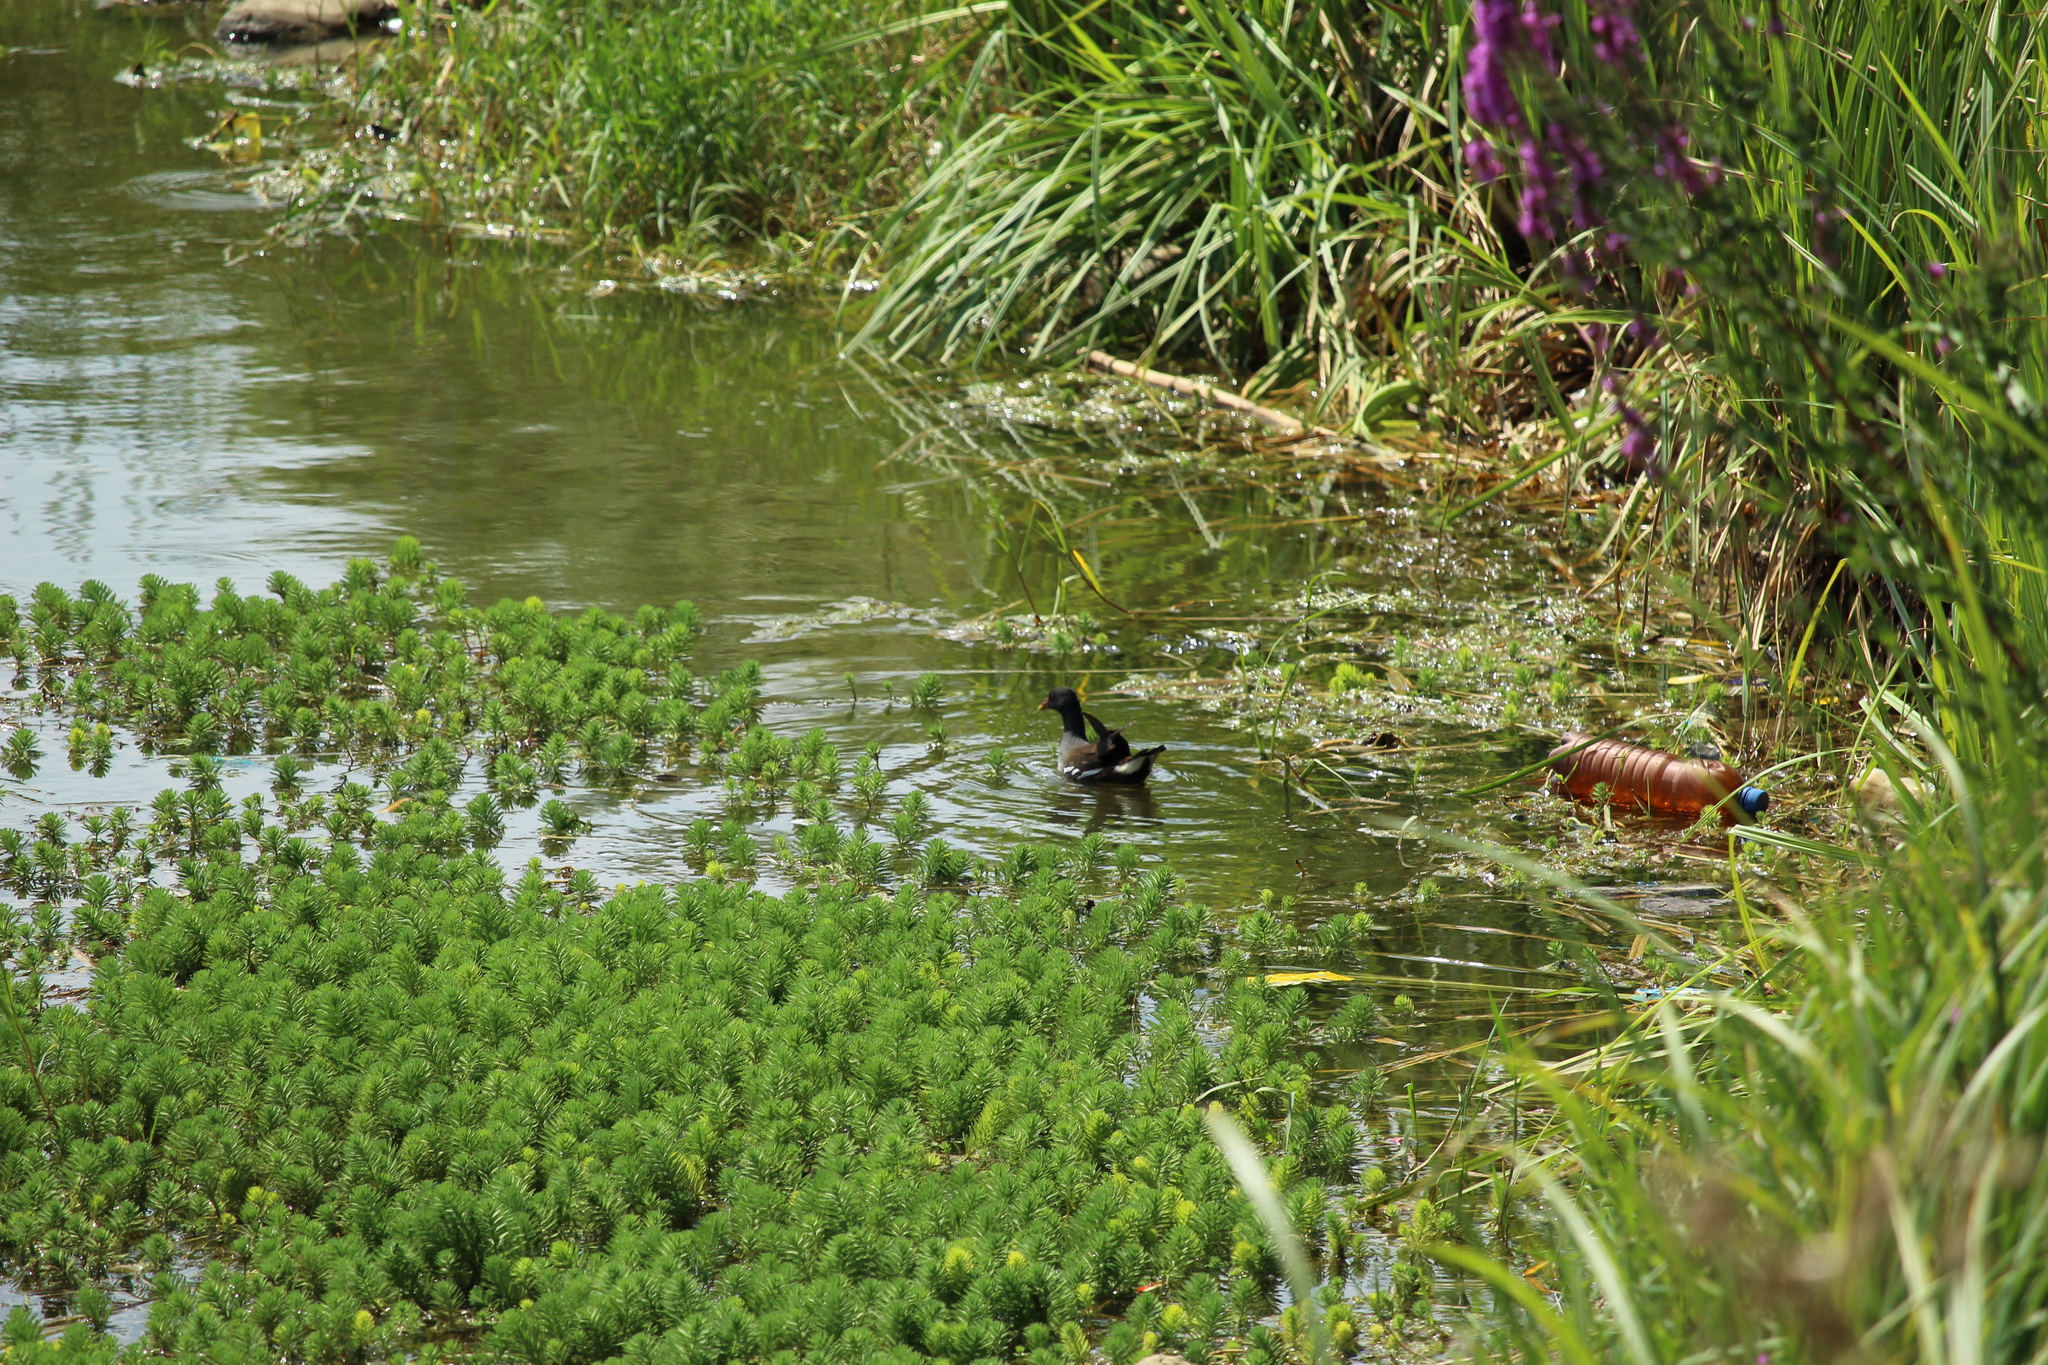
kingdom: Animalia
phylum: Chordata
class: Aves
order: Gruiformes
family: Rallidae
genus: Gallinula
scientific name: Gallinula chloropus
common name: Common moorhen
